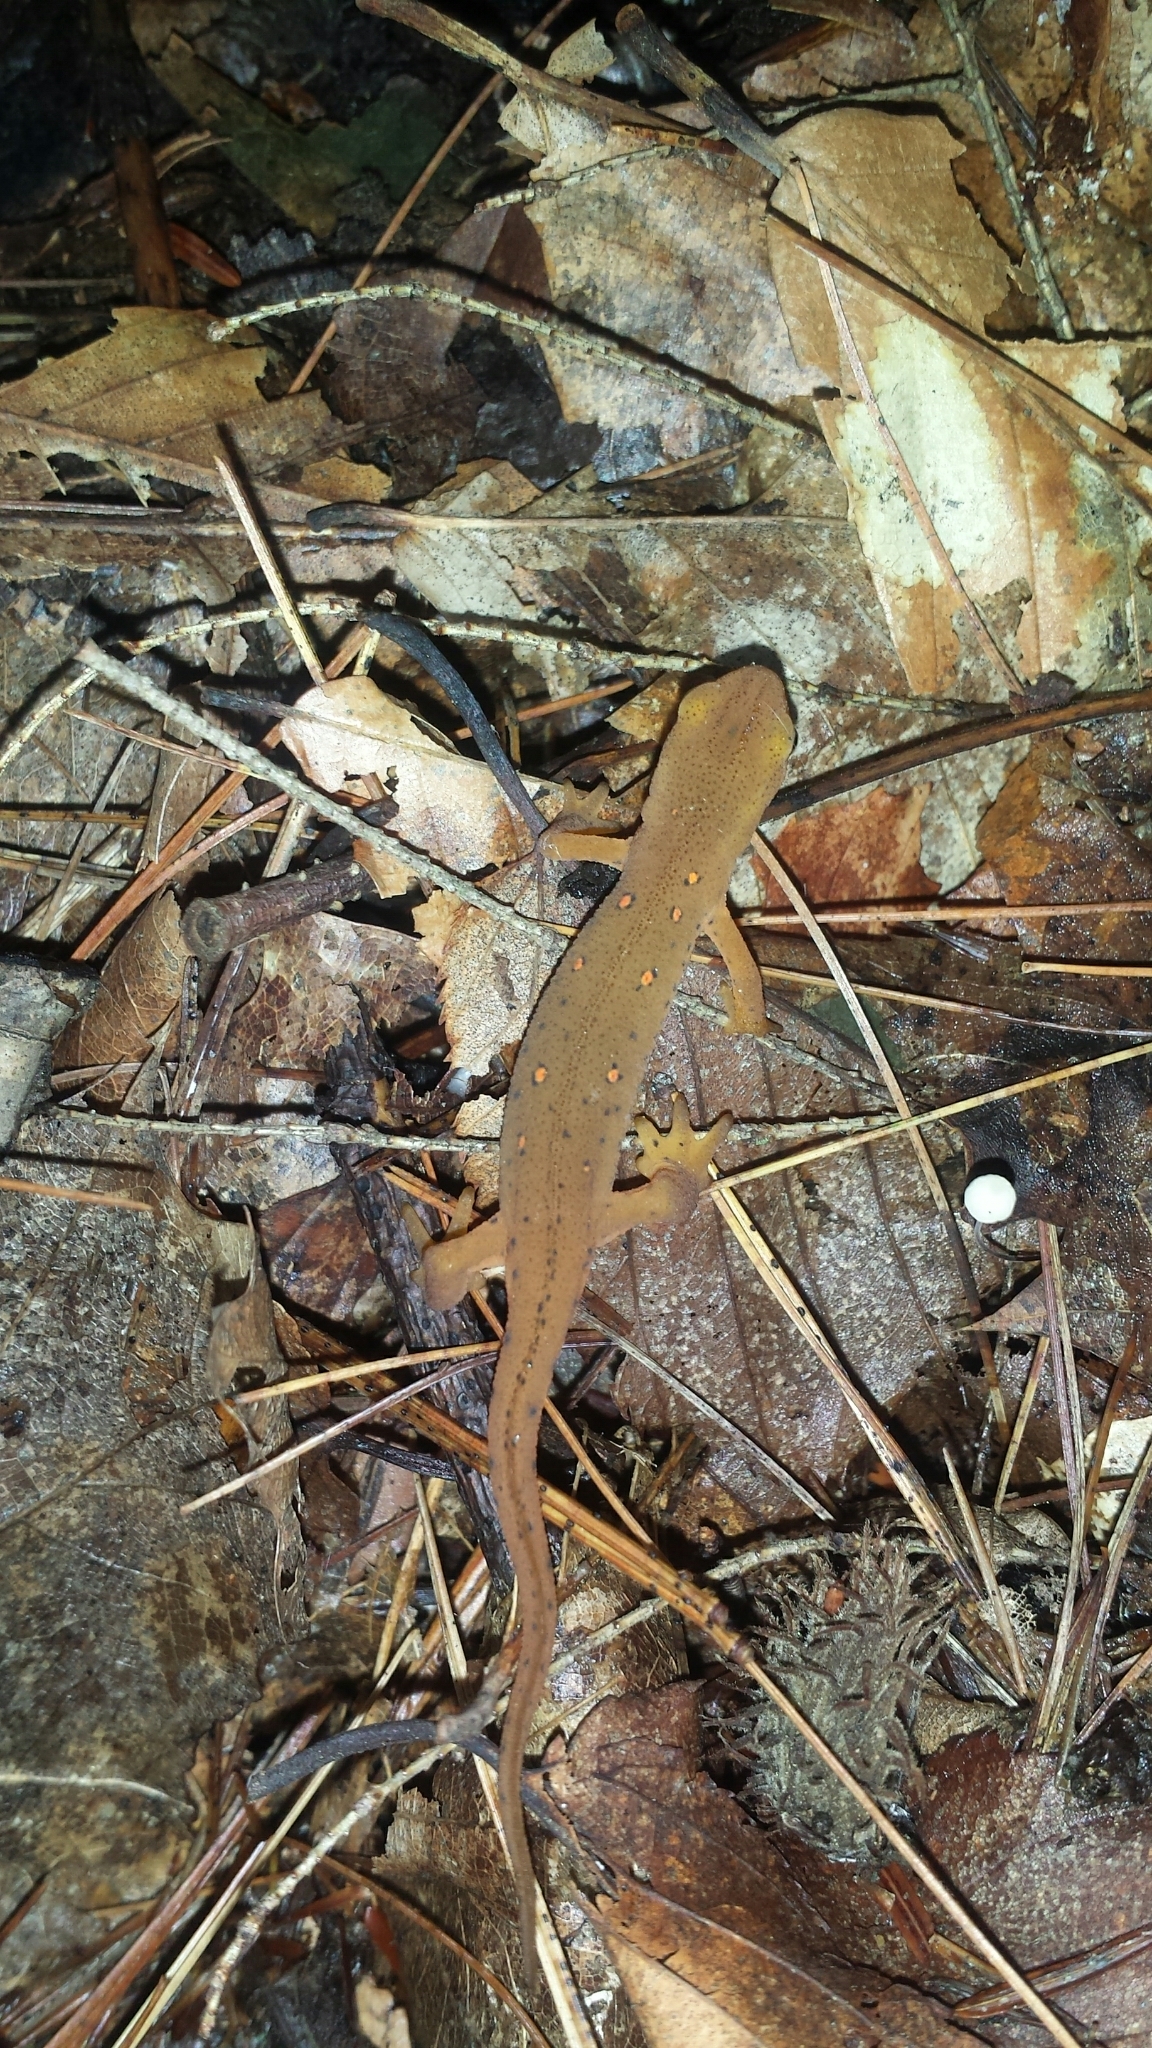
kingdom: Animalia
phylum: Chordata
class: Amphibia
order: Caudata
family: Salamandridae
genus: Notophthalmus
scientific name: Notophthalmus viridescens
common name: Eastern newt
